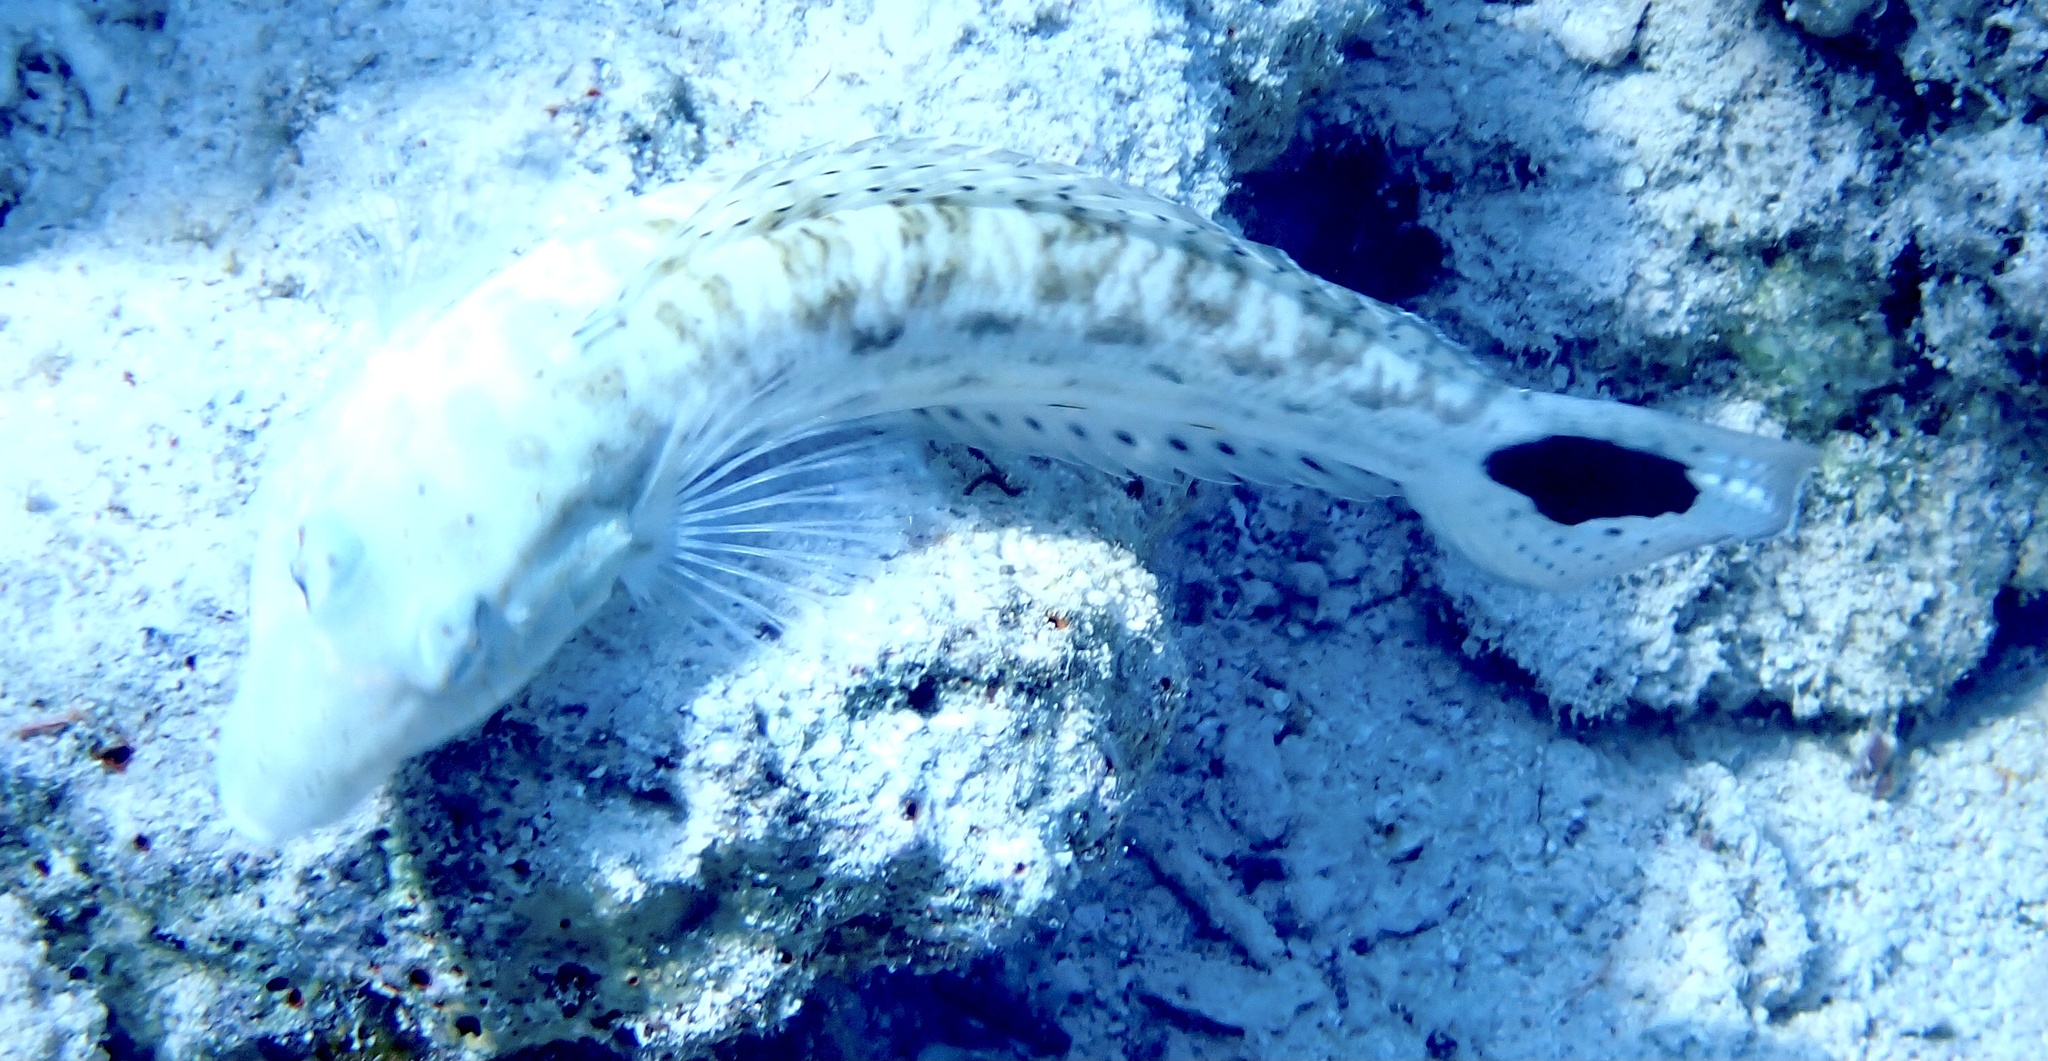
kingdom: Animalia
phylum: Chordata
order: Perciformes
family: Pinguipedidae
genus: Parapercis
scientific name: Parapercis hexophtalma
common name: Speckled sandperch
